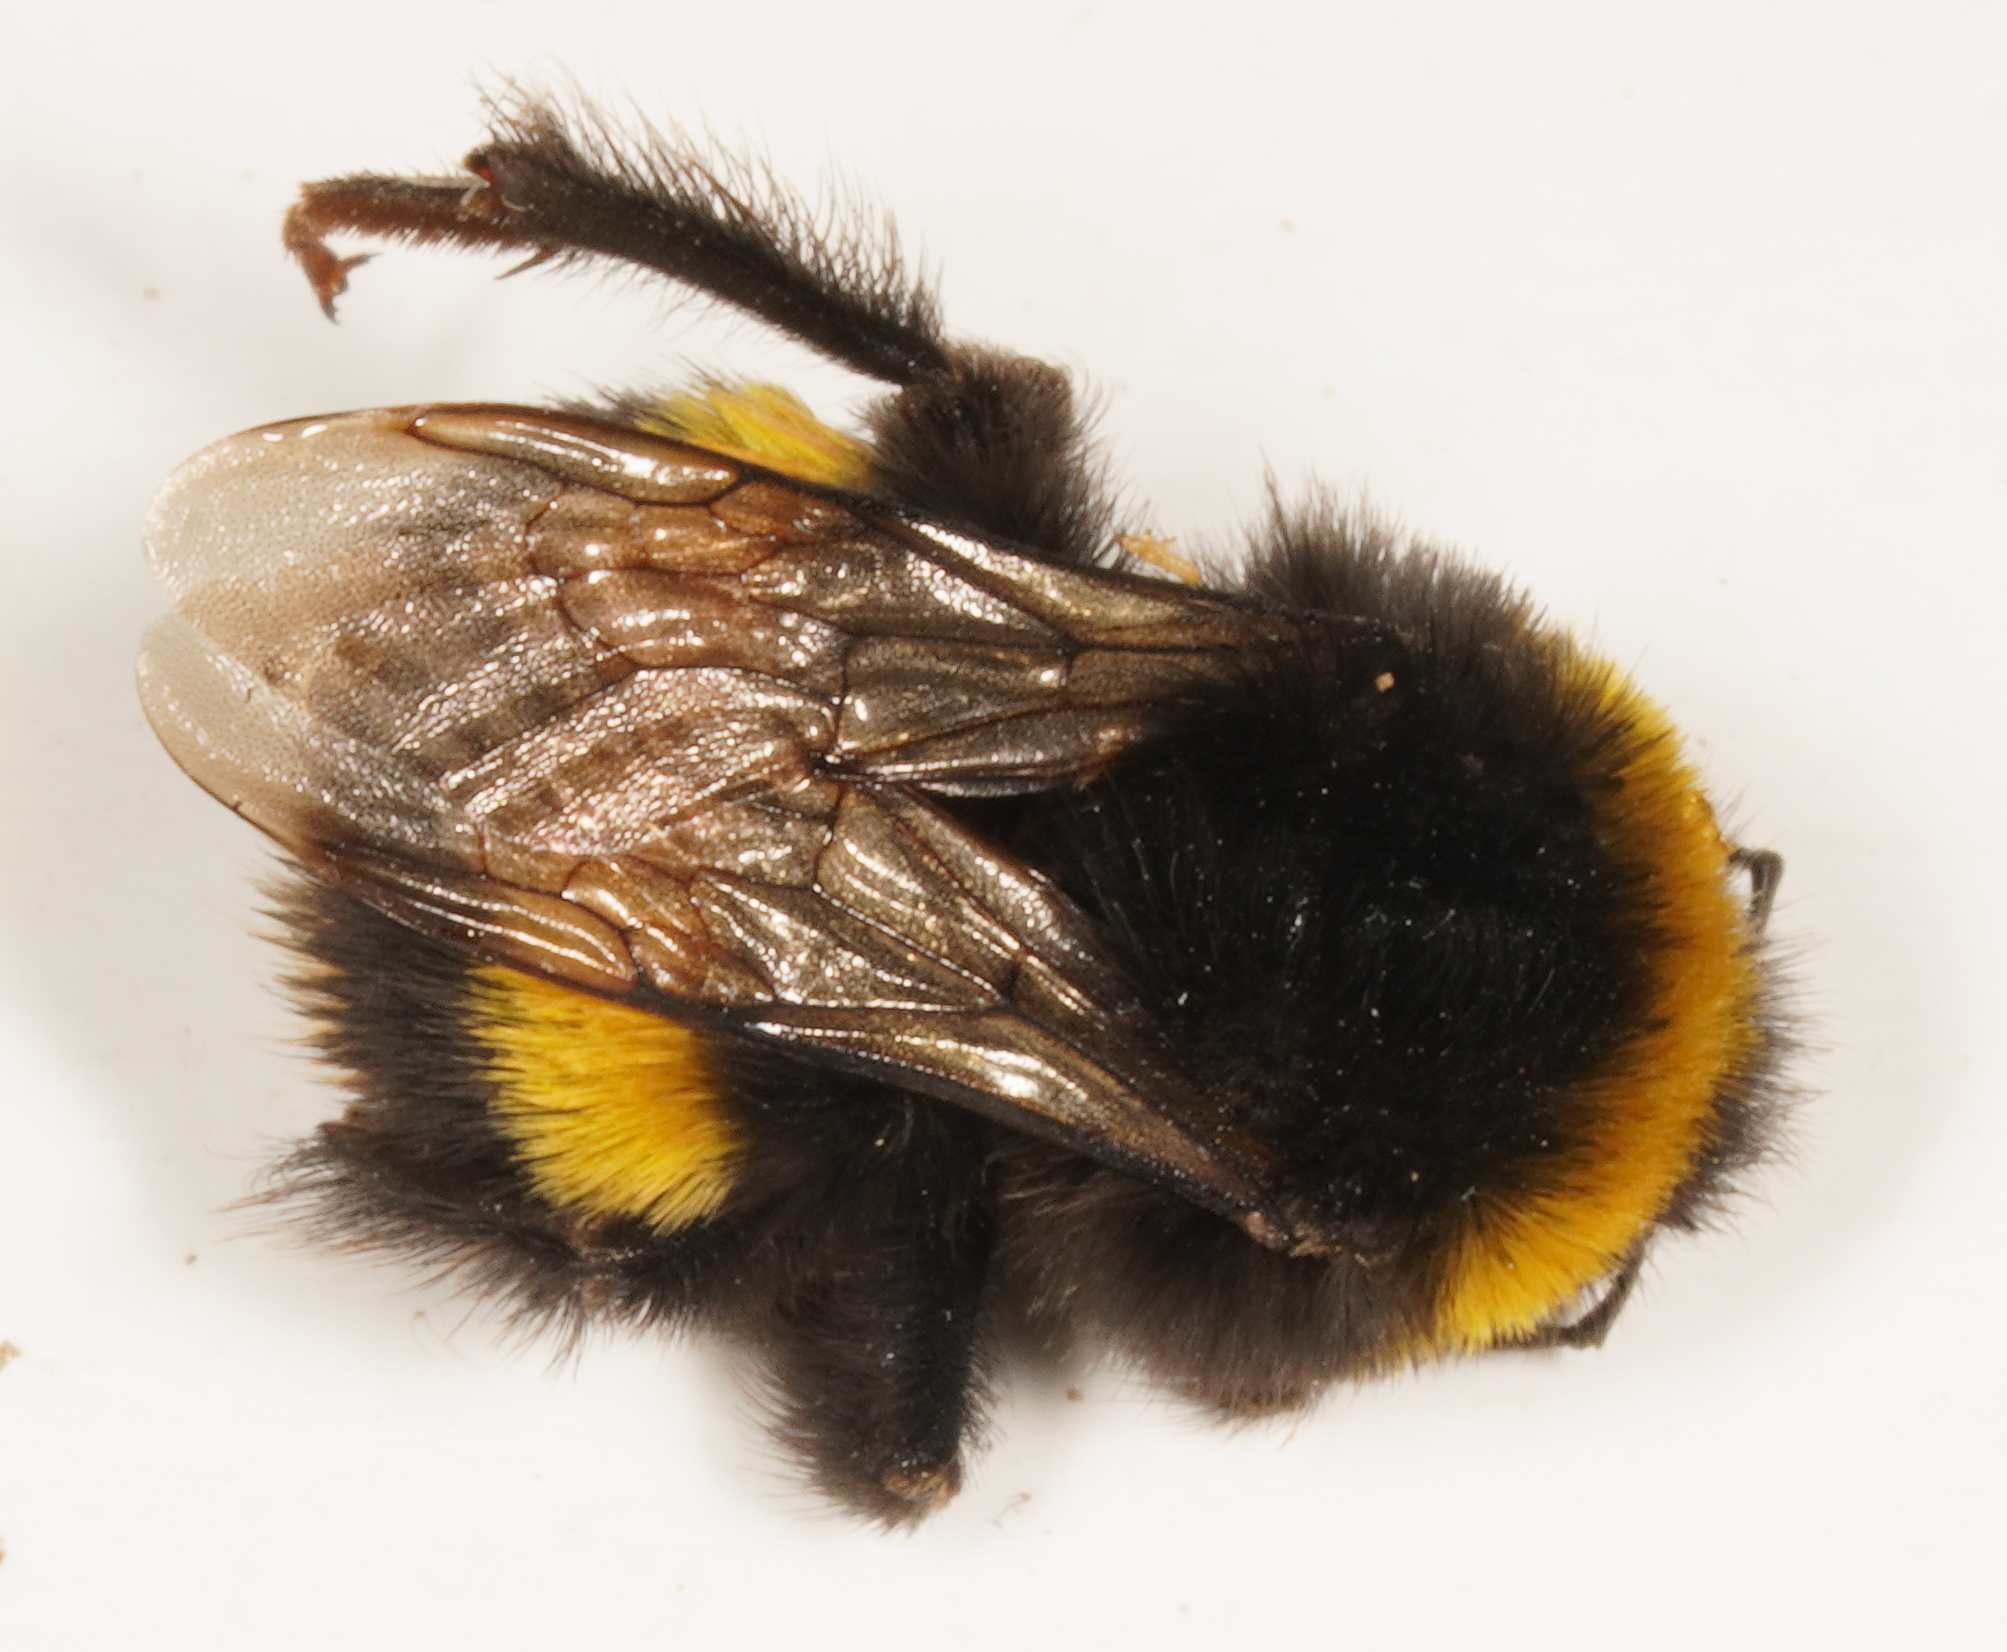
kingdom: Animalia
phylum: Arthropoda
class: Insecta
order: Hymenoptera
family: Apidae
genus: Bombus
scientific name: Bombus terrestris
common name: Buff-tailed bumblebee
